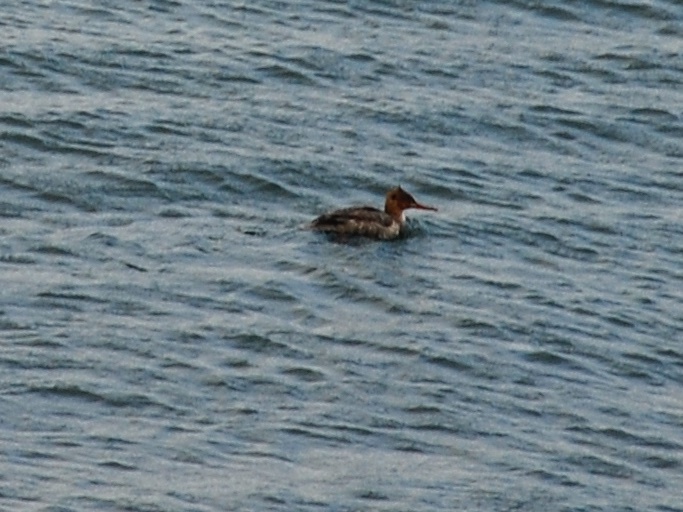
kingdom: Animalia
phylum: Chordata
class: Aves
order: Anseriformes
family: Anatidae
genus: Mergus
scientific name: Mergus serrator
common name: Red-breasted merganser
